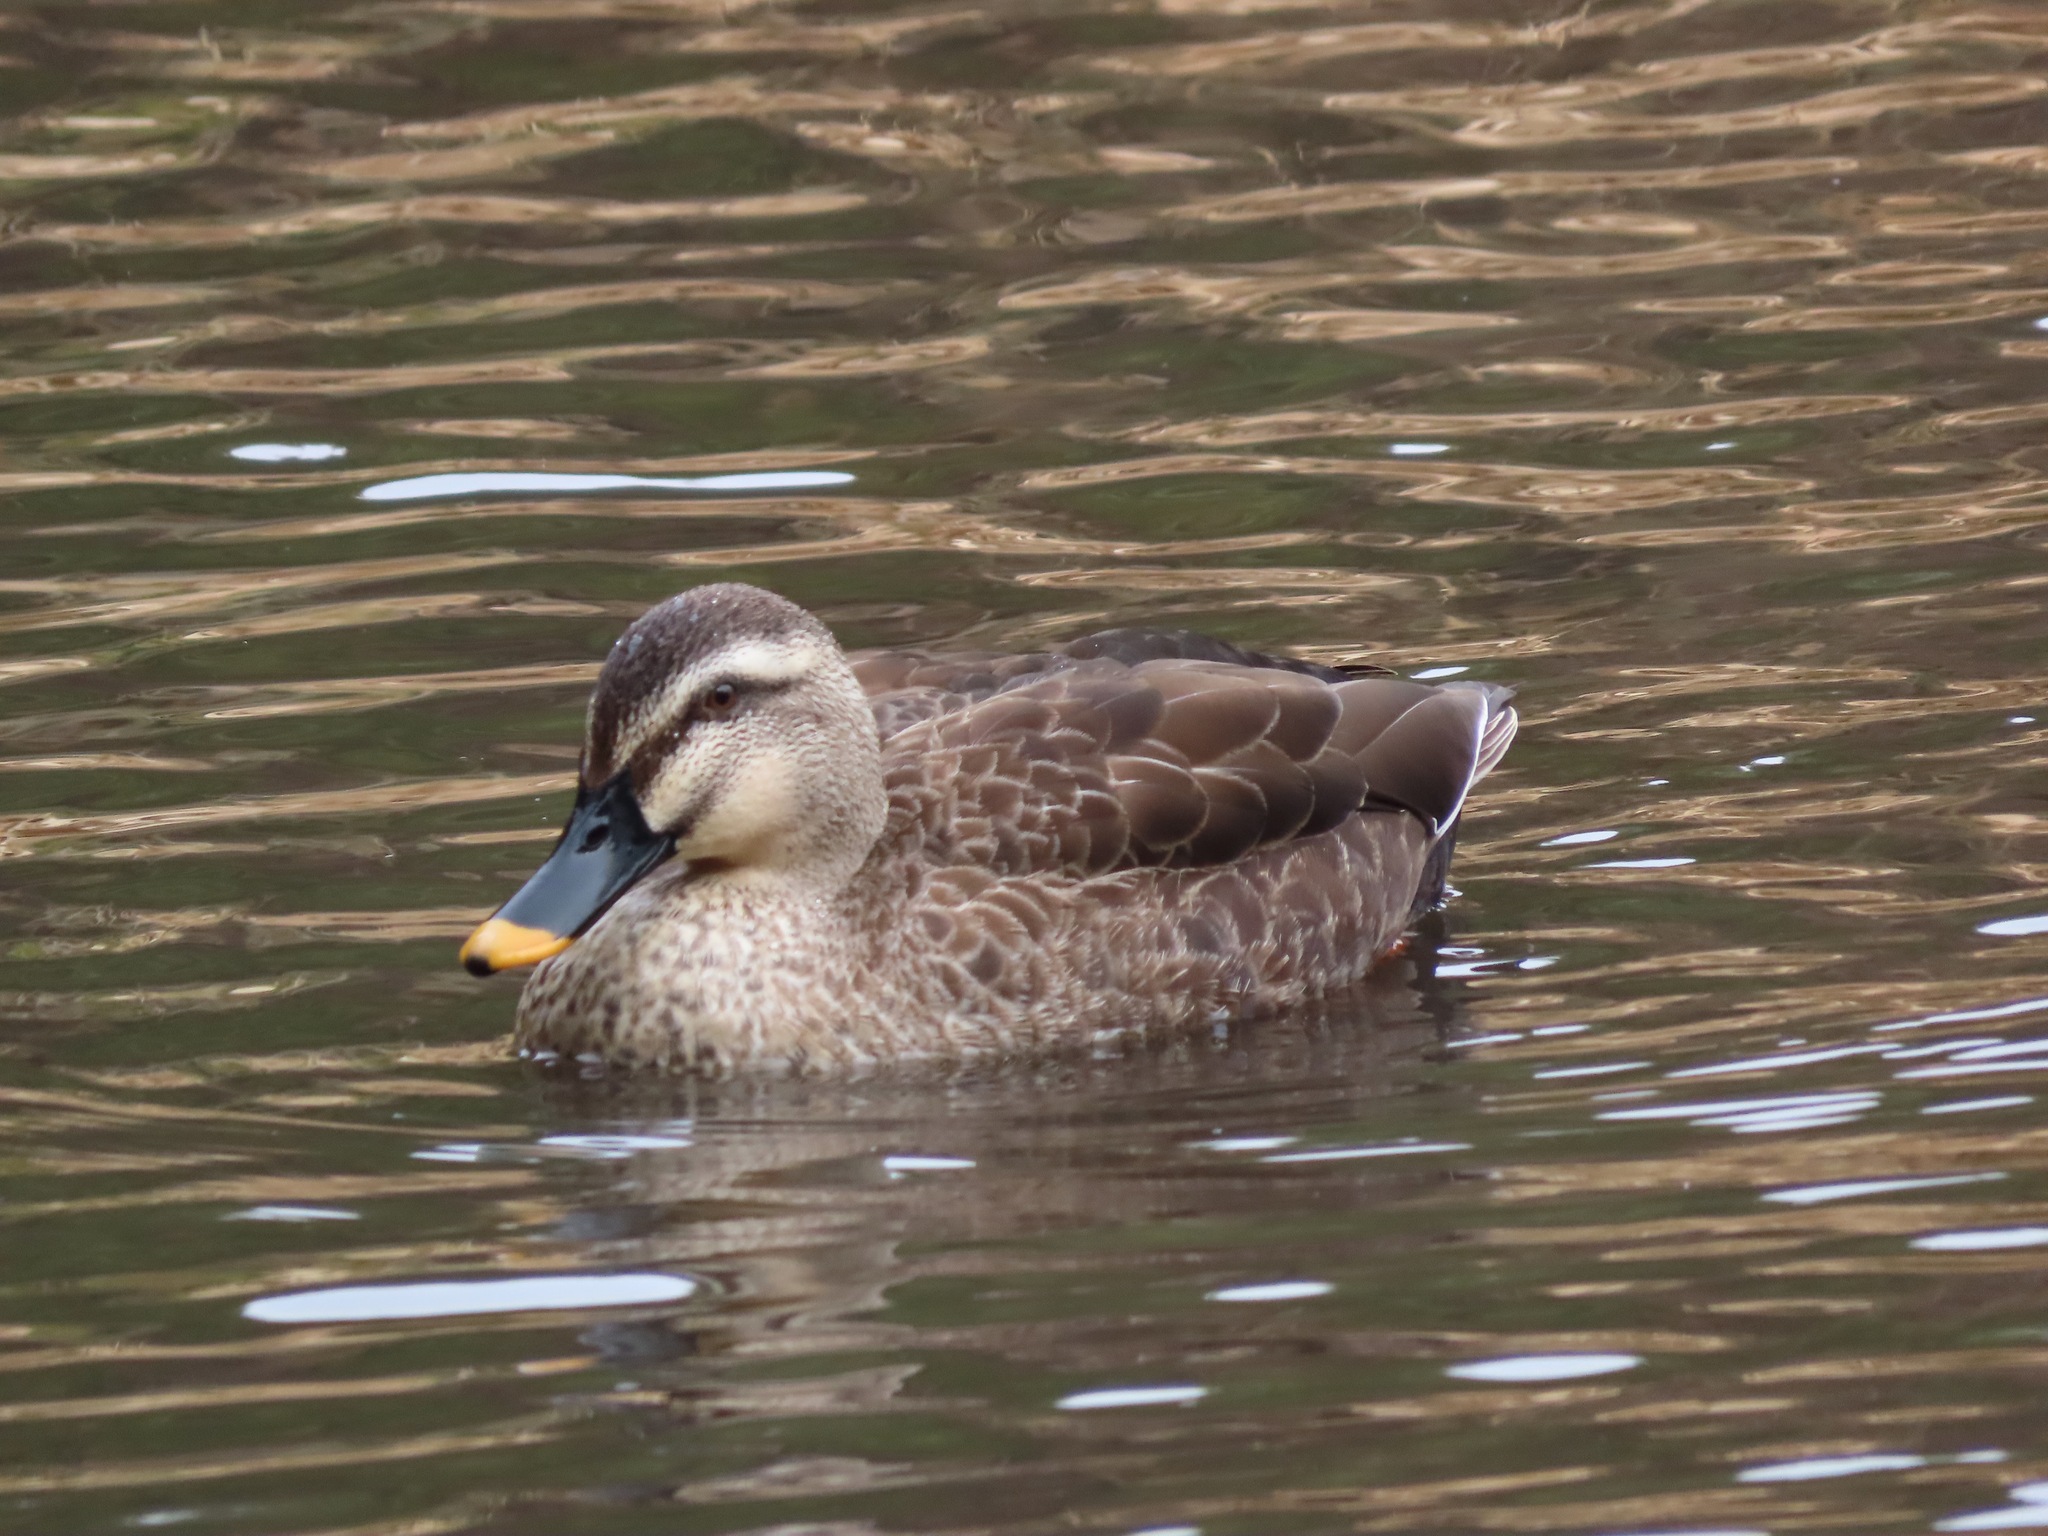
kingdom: Animalia
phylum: Chordata
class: Aves
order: Anseriformes
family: Anatidae
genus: Anas
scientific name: Anas zonorhyncha
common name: Eastern spot-billed duck
